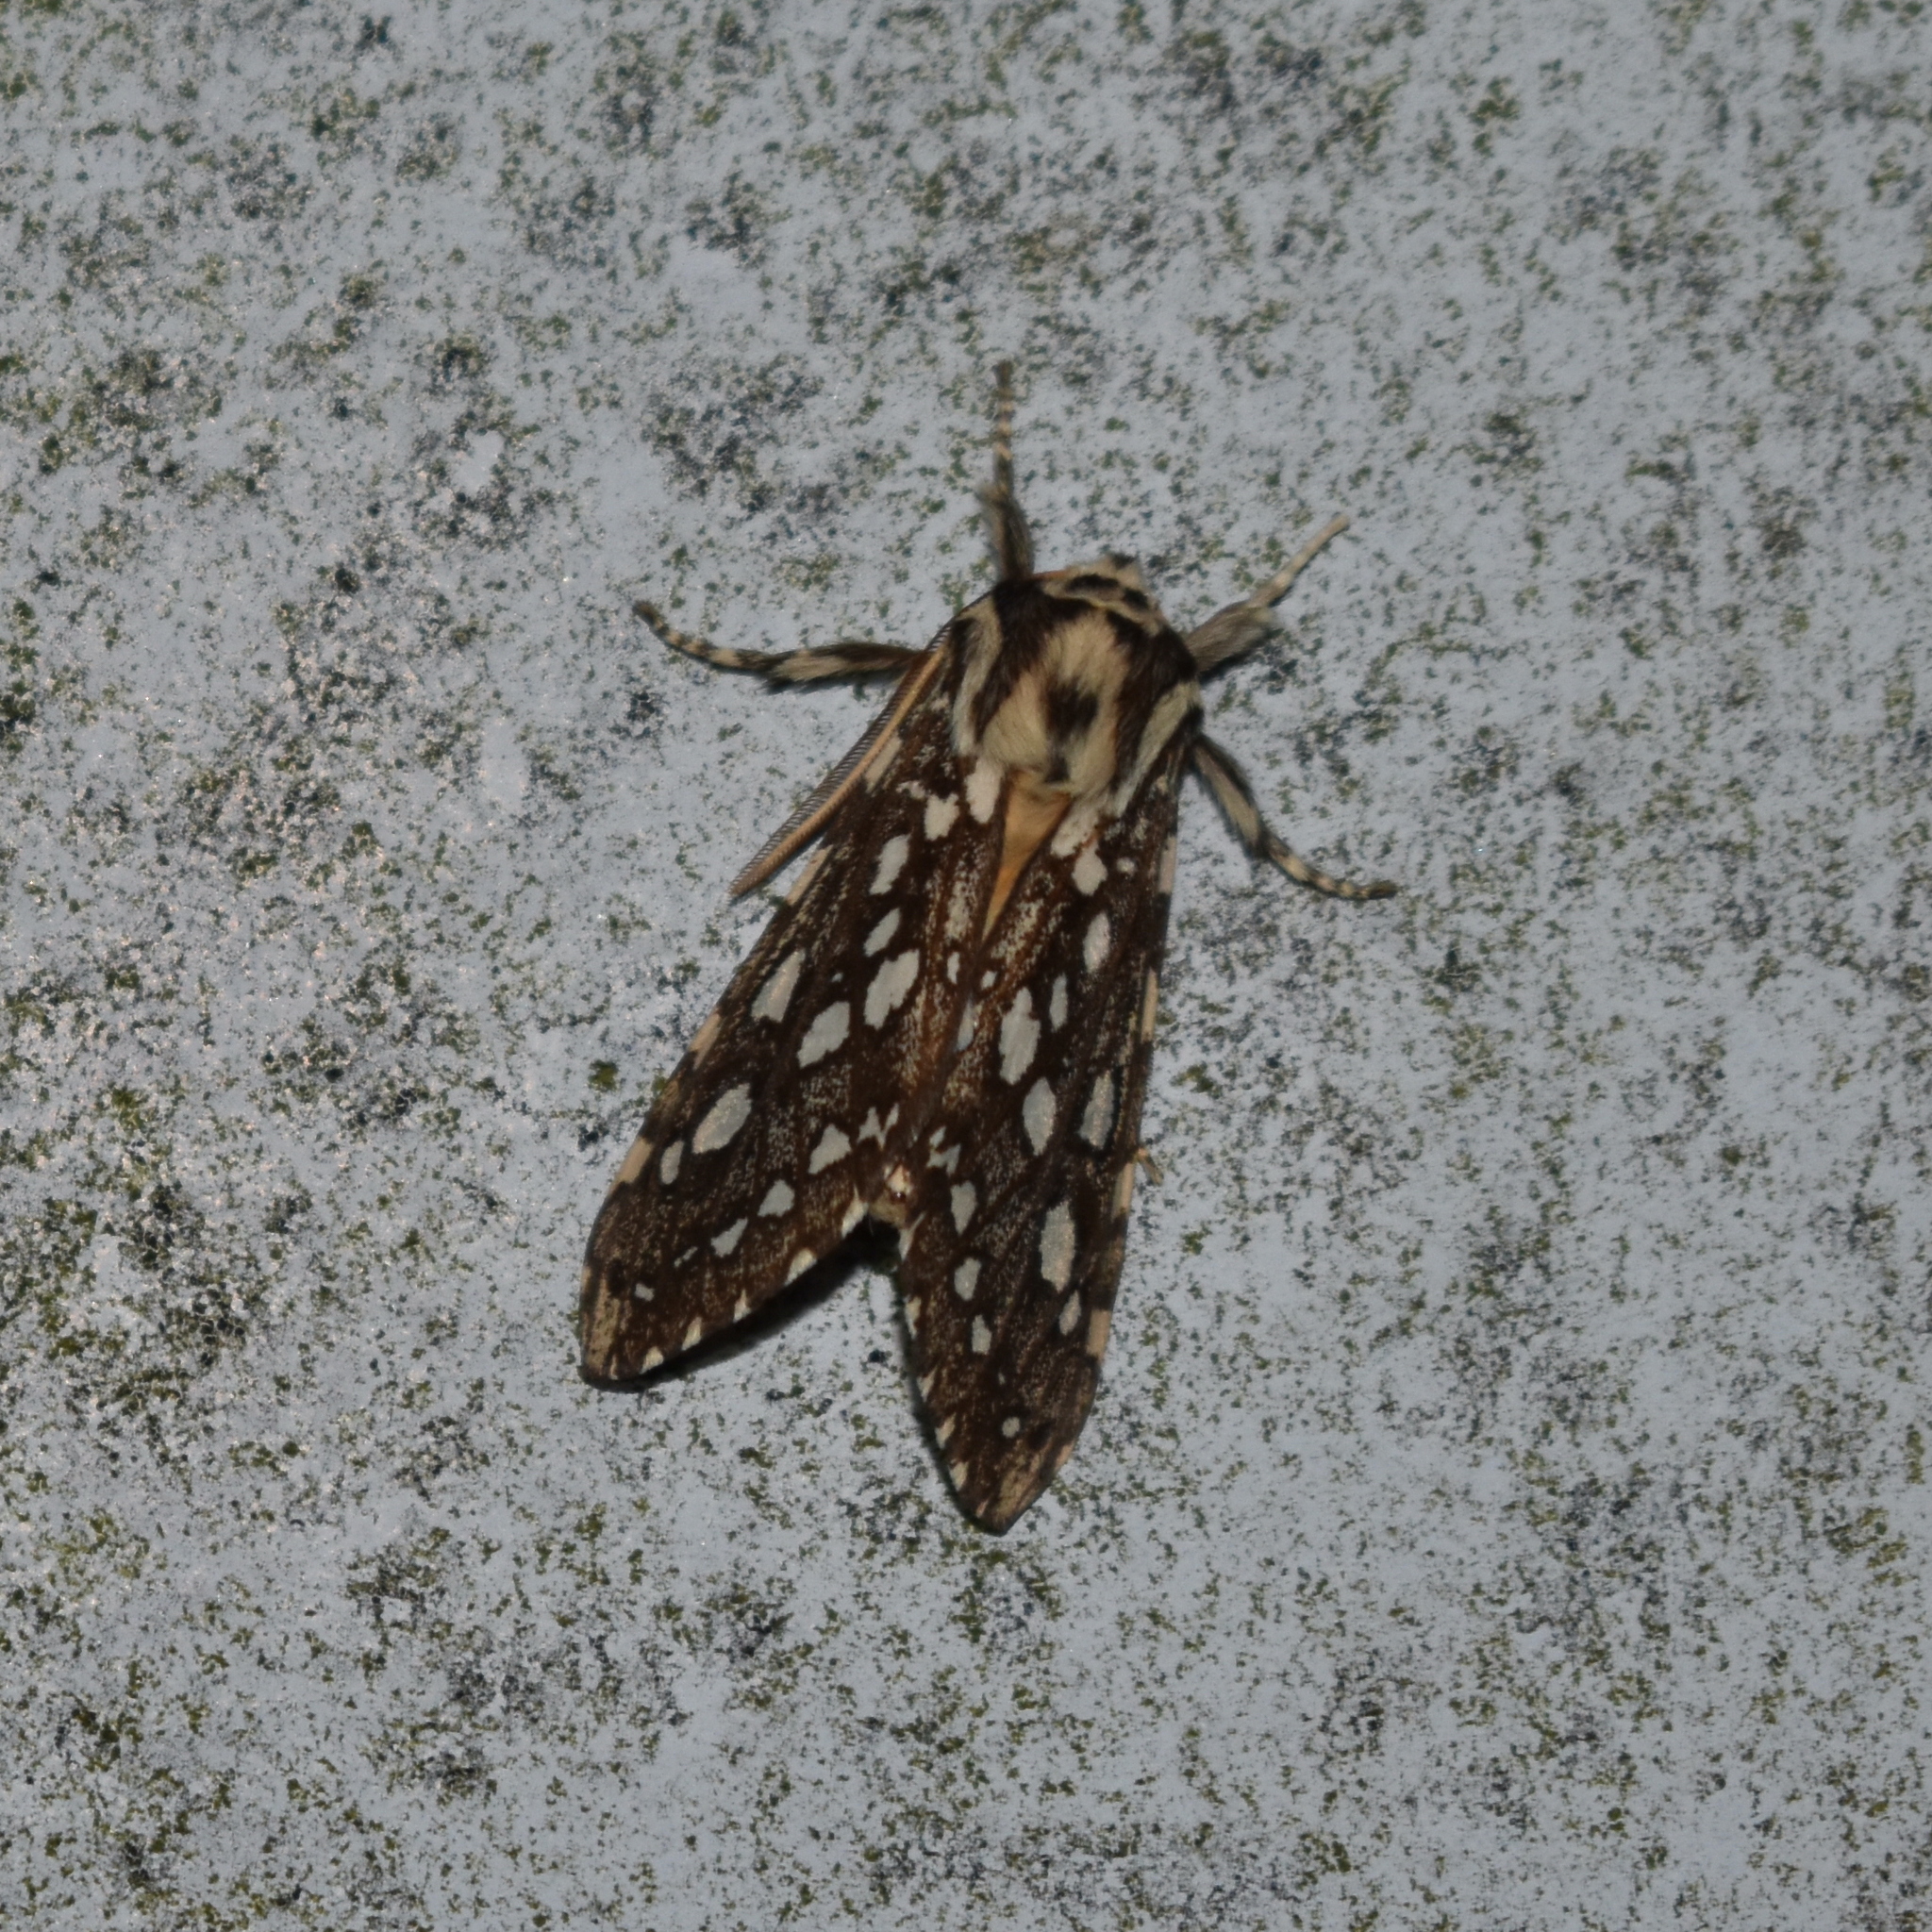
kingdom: Animalia
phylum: Arthropoda
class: Insecta
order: Lepidoptera
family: Erebidae
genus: Lophocampa
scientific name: Lophocampa argentata
